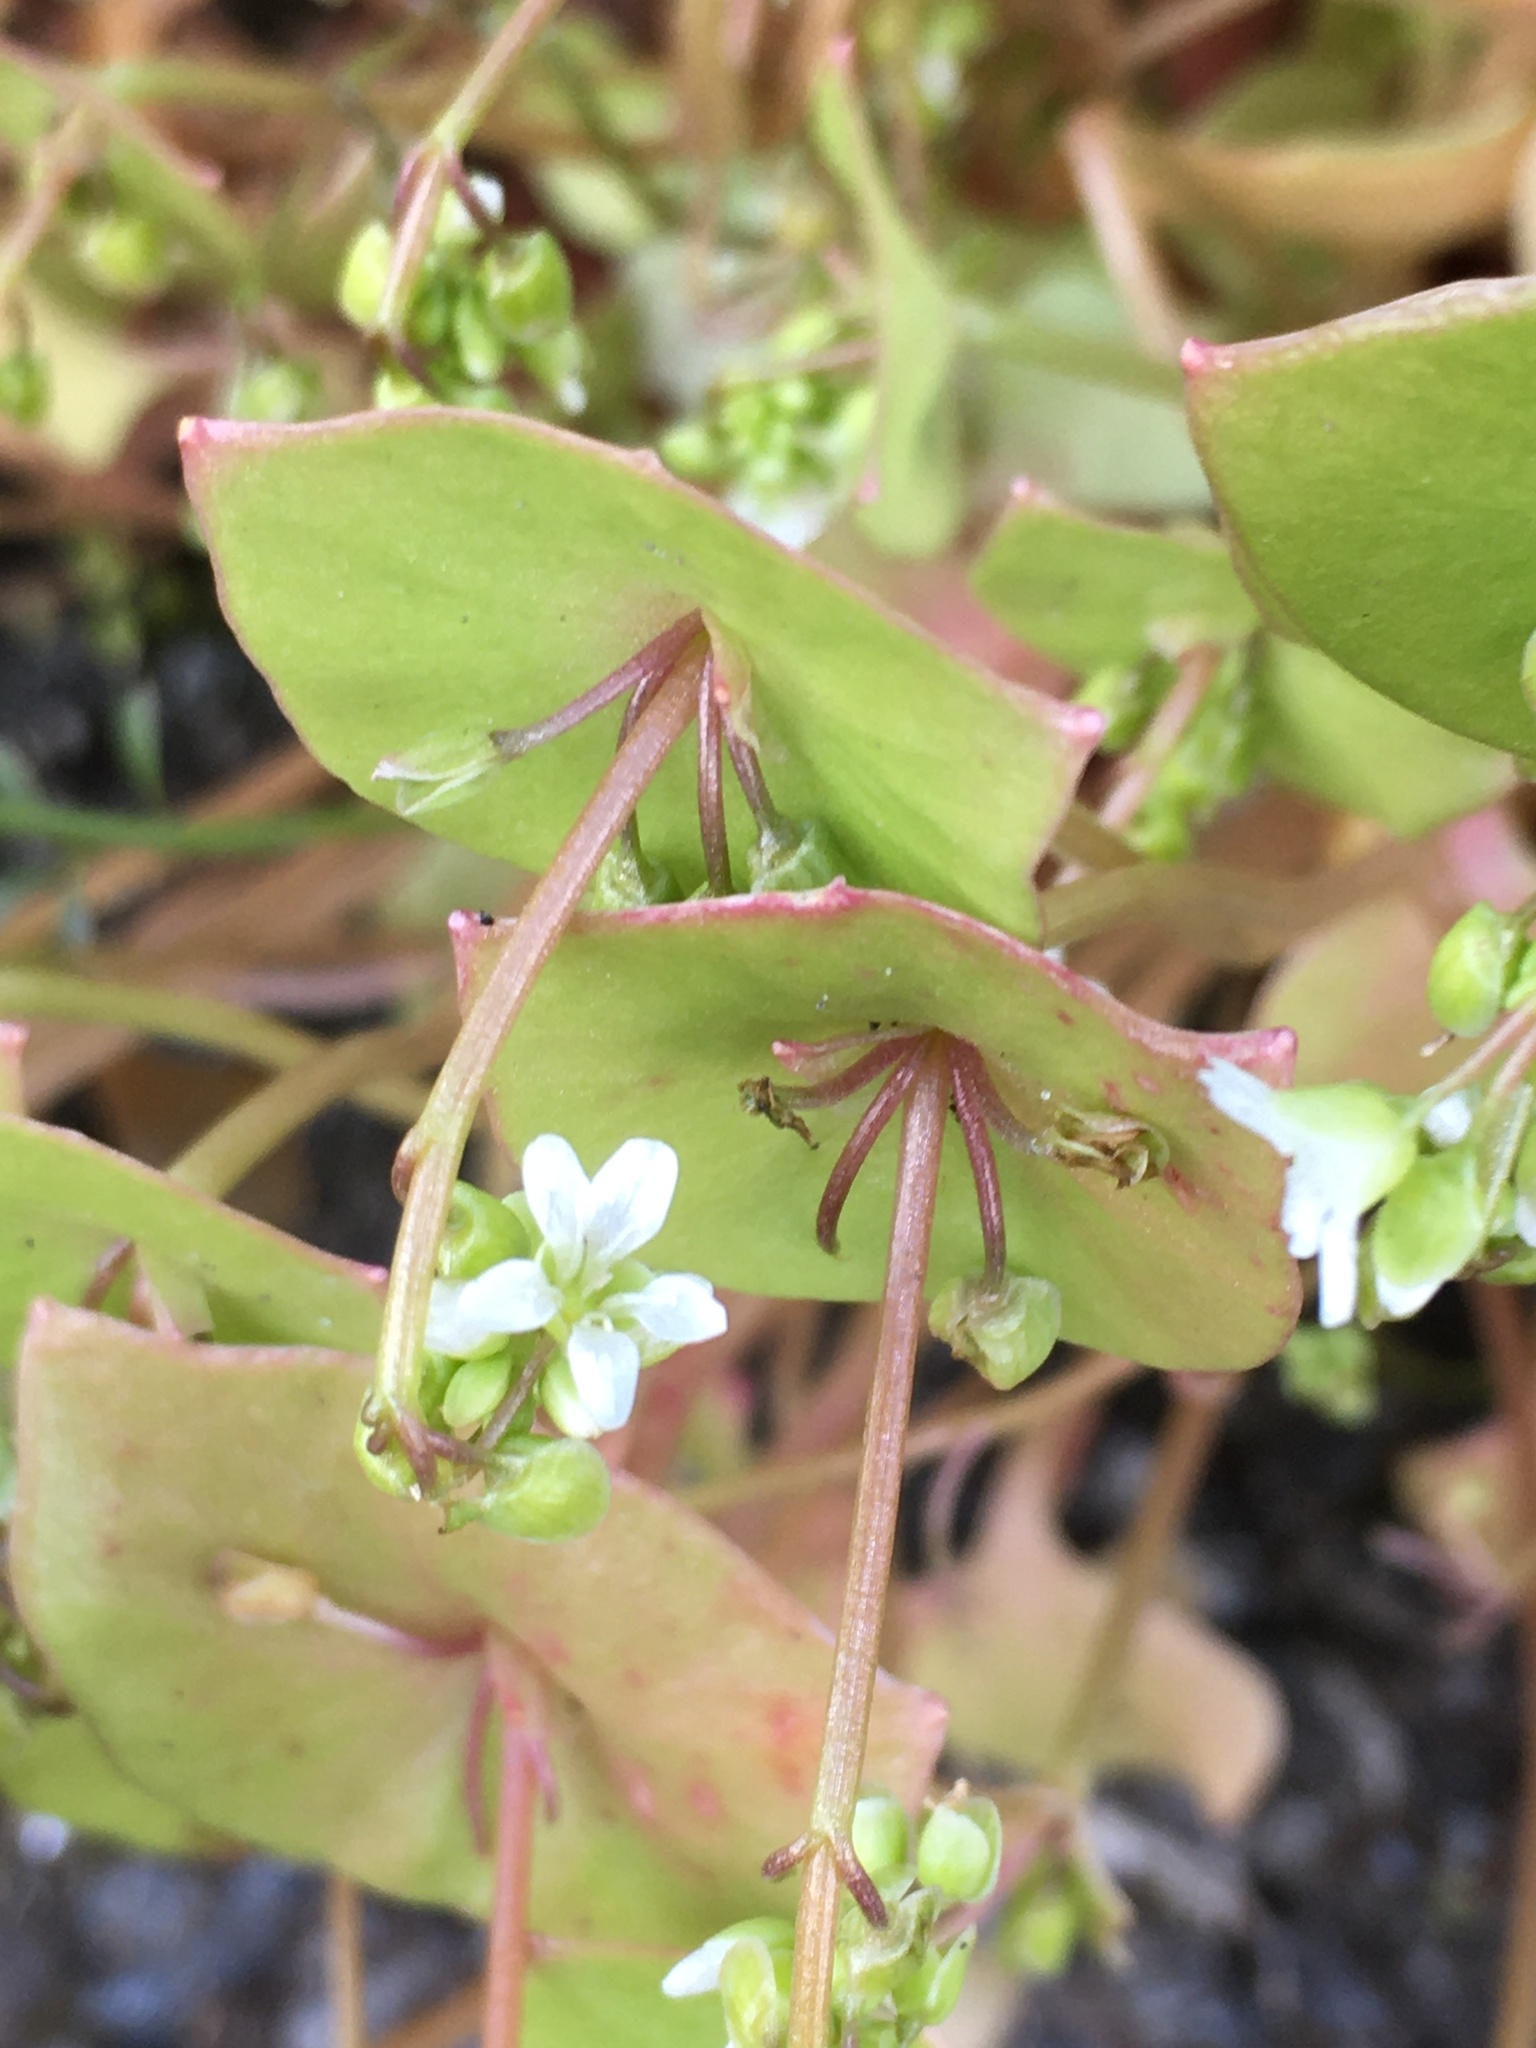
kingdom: Plantae
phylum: Tracheophyta
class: Magnoliopsida
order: Caryophyllales
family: Montiaceae
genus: Claytonia
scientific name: Claytonia perfoliata
